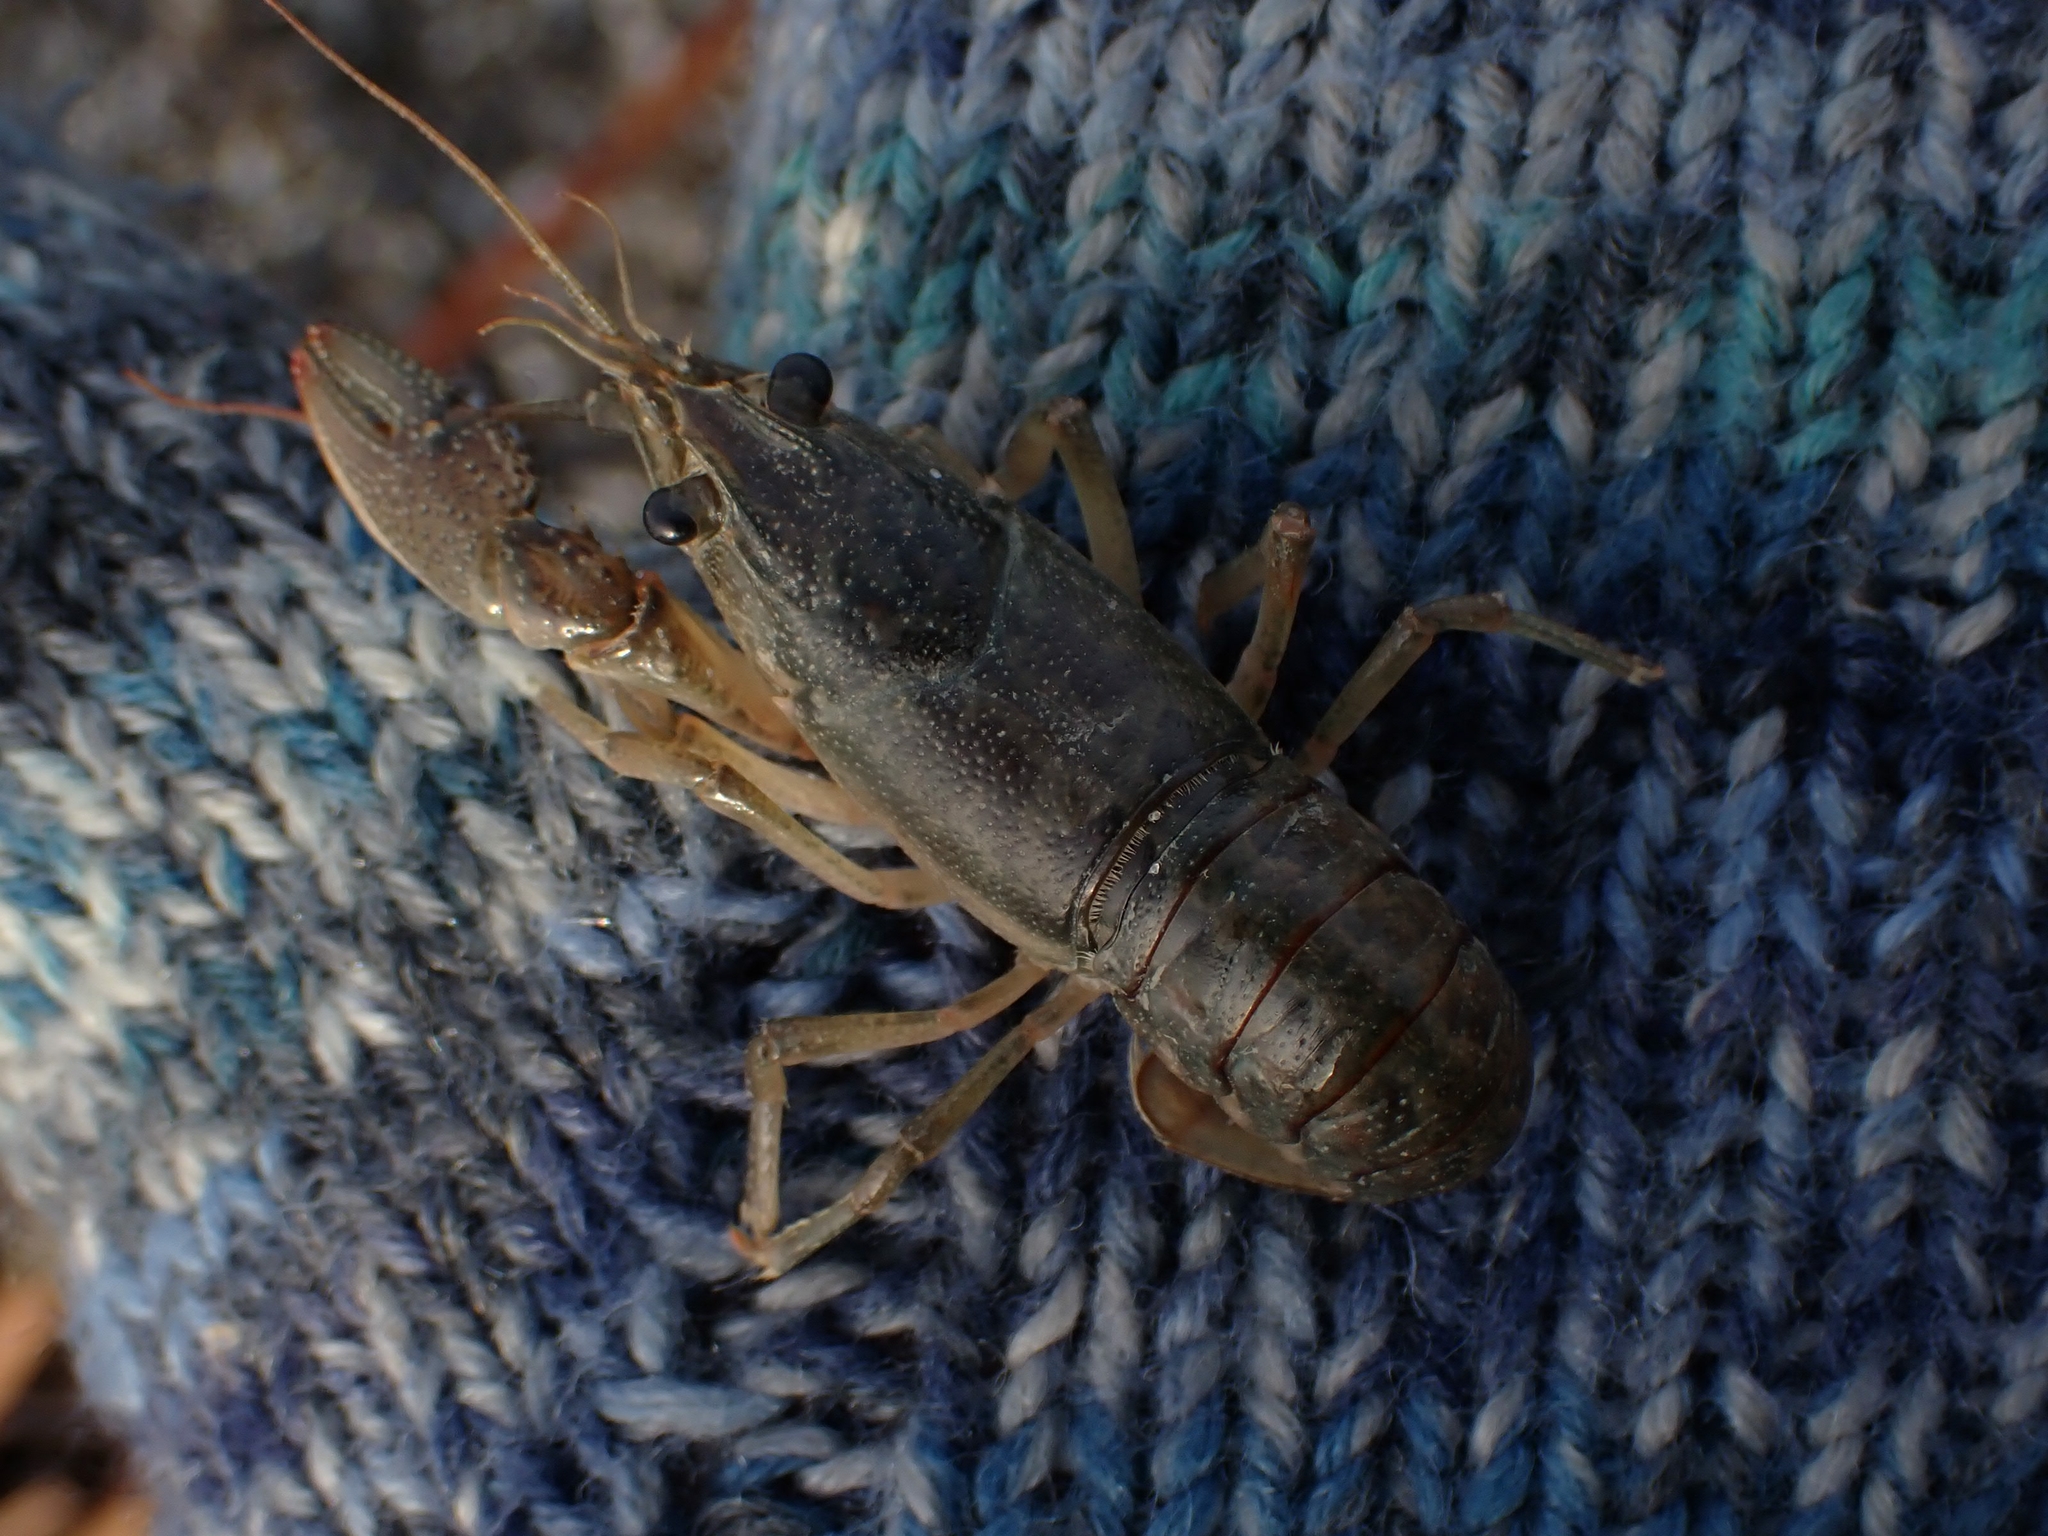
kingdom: Animalia
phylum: Arthropoda
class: Malacostraca
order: Decapoda
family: Cambaridae
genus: Faxonius
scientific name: Faxonius virilis
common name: Virile crayfish
